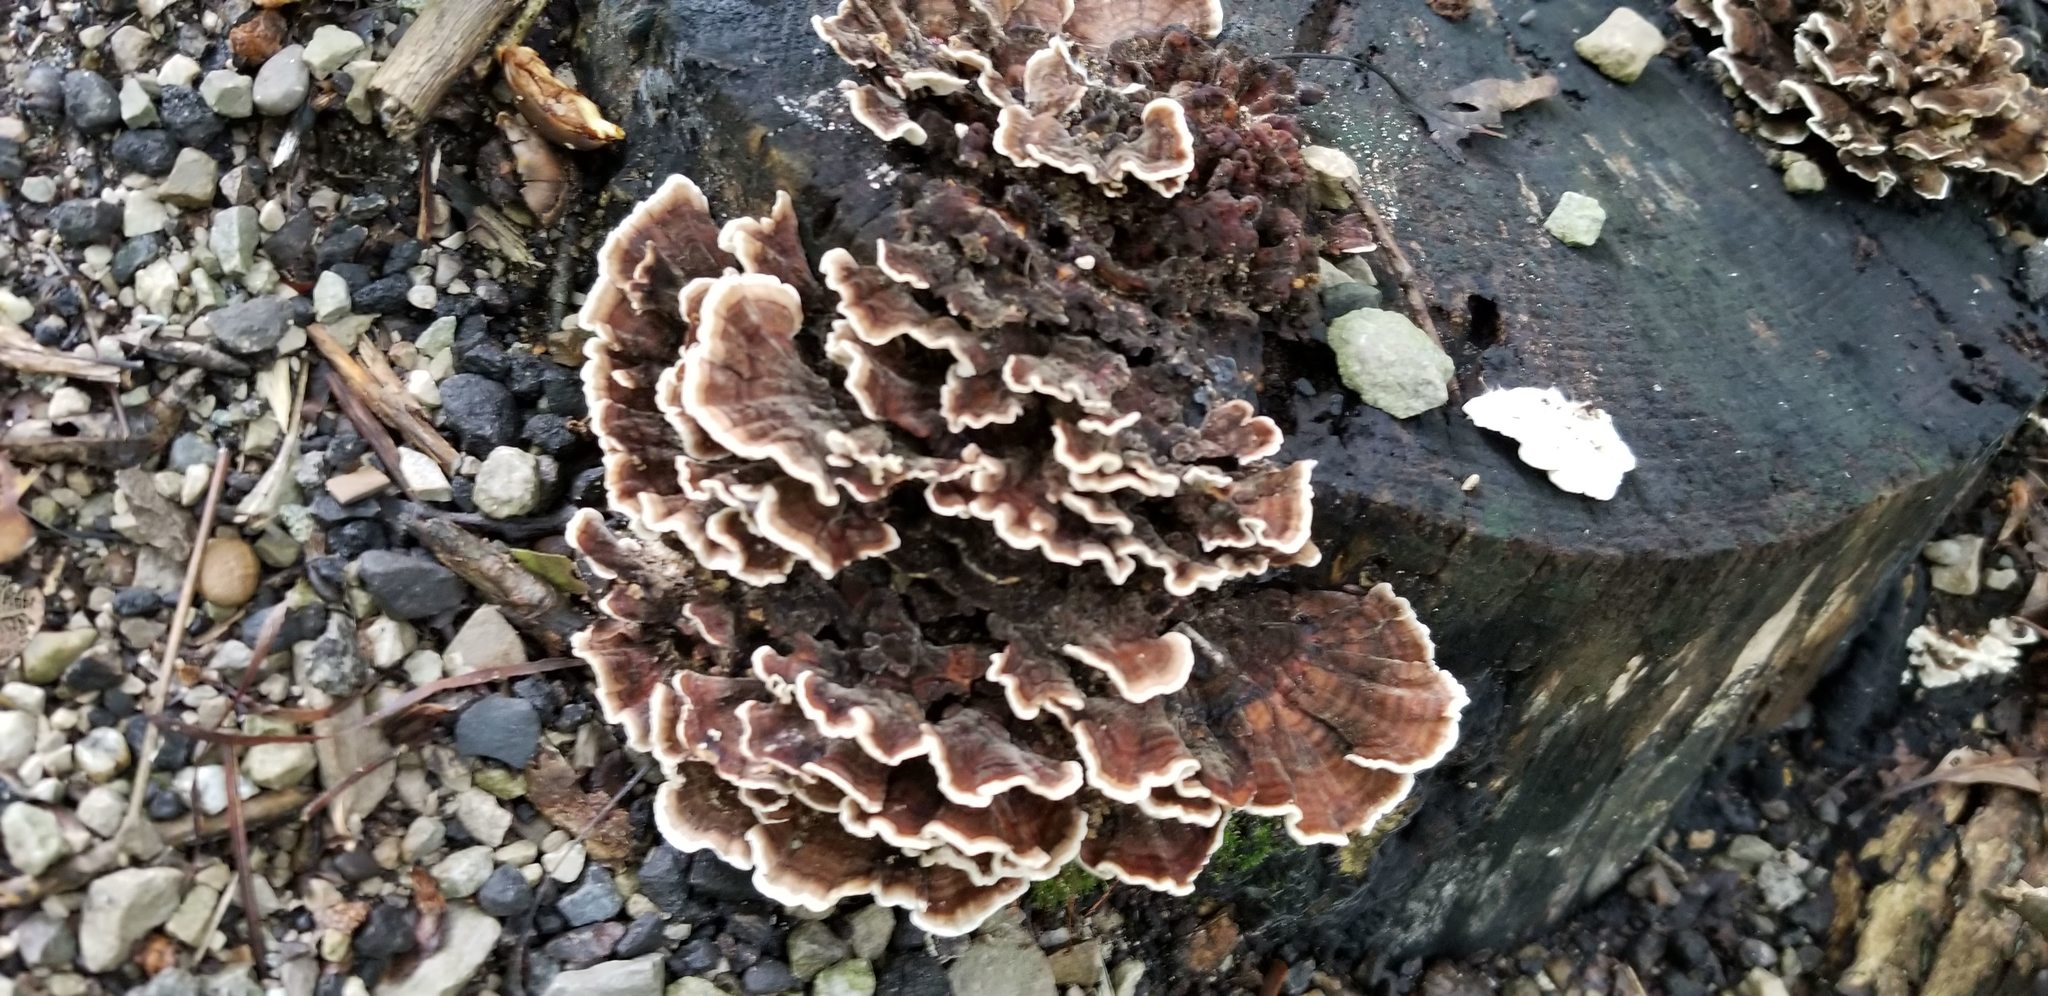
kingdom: Fungi
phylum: Basidiomycota
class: Agaricomycetes
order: Polyporales
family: Polyporaceae
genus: Trametes
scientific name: Trametes versicolor
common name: Turkeytail
